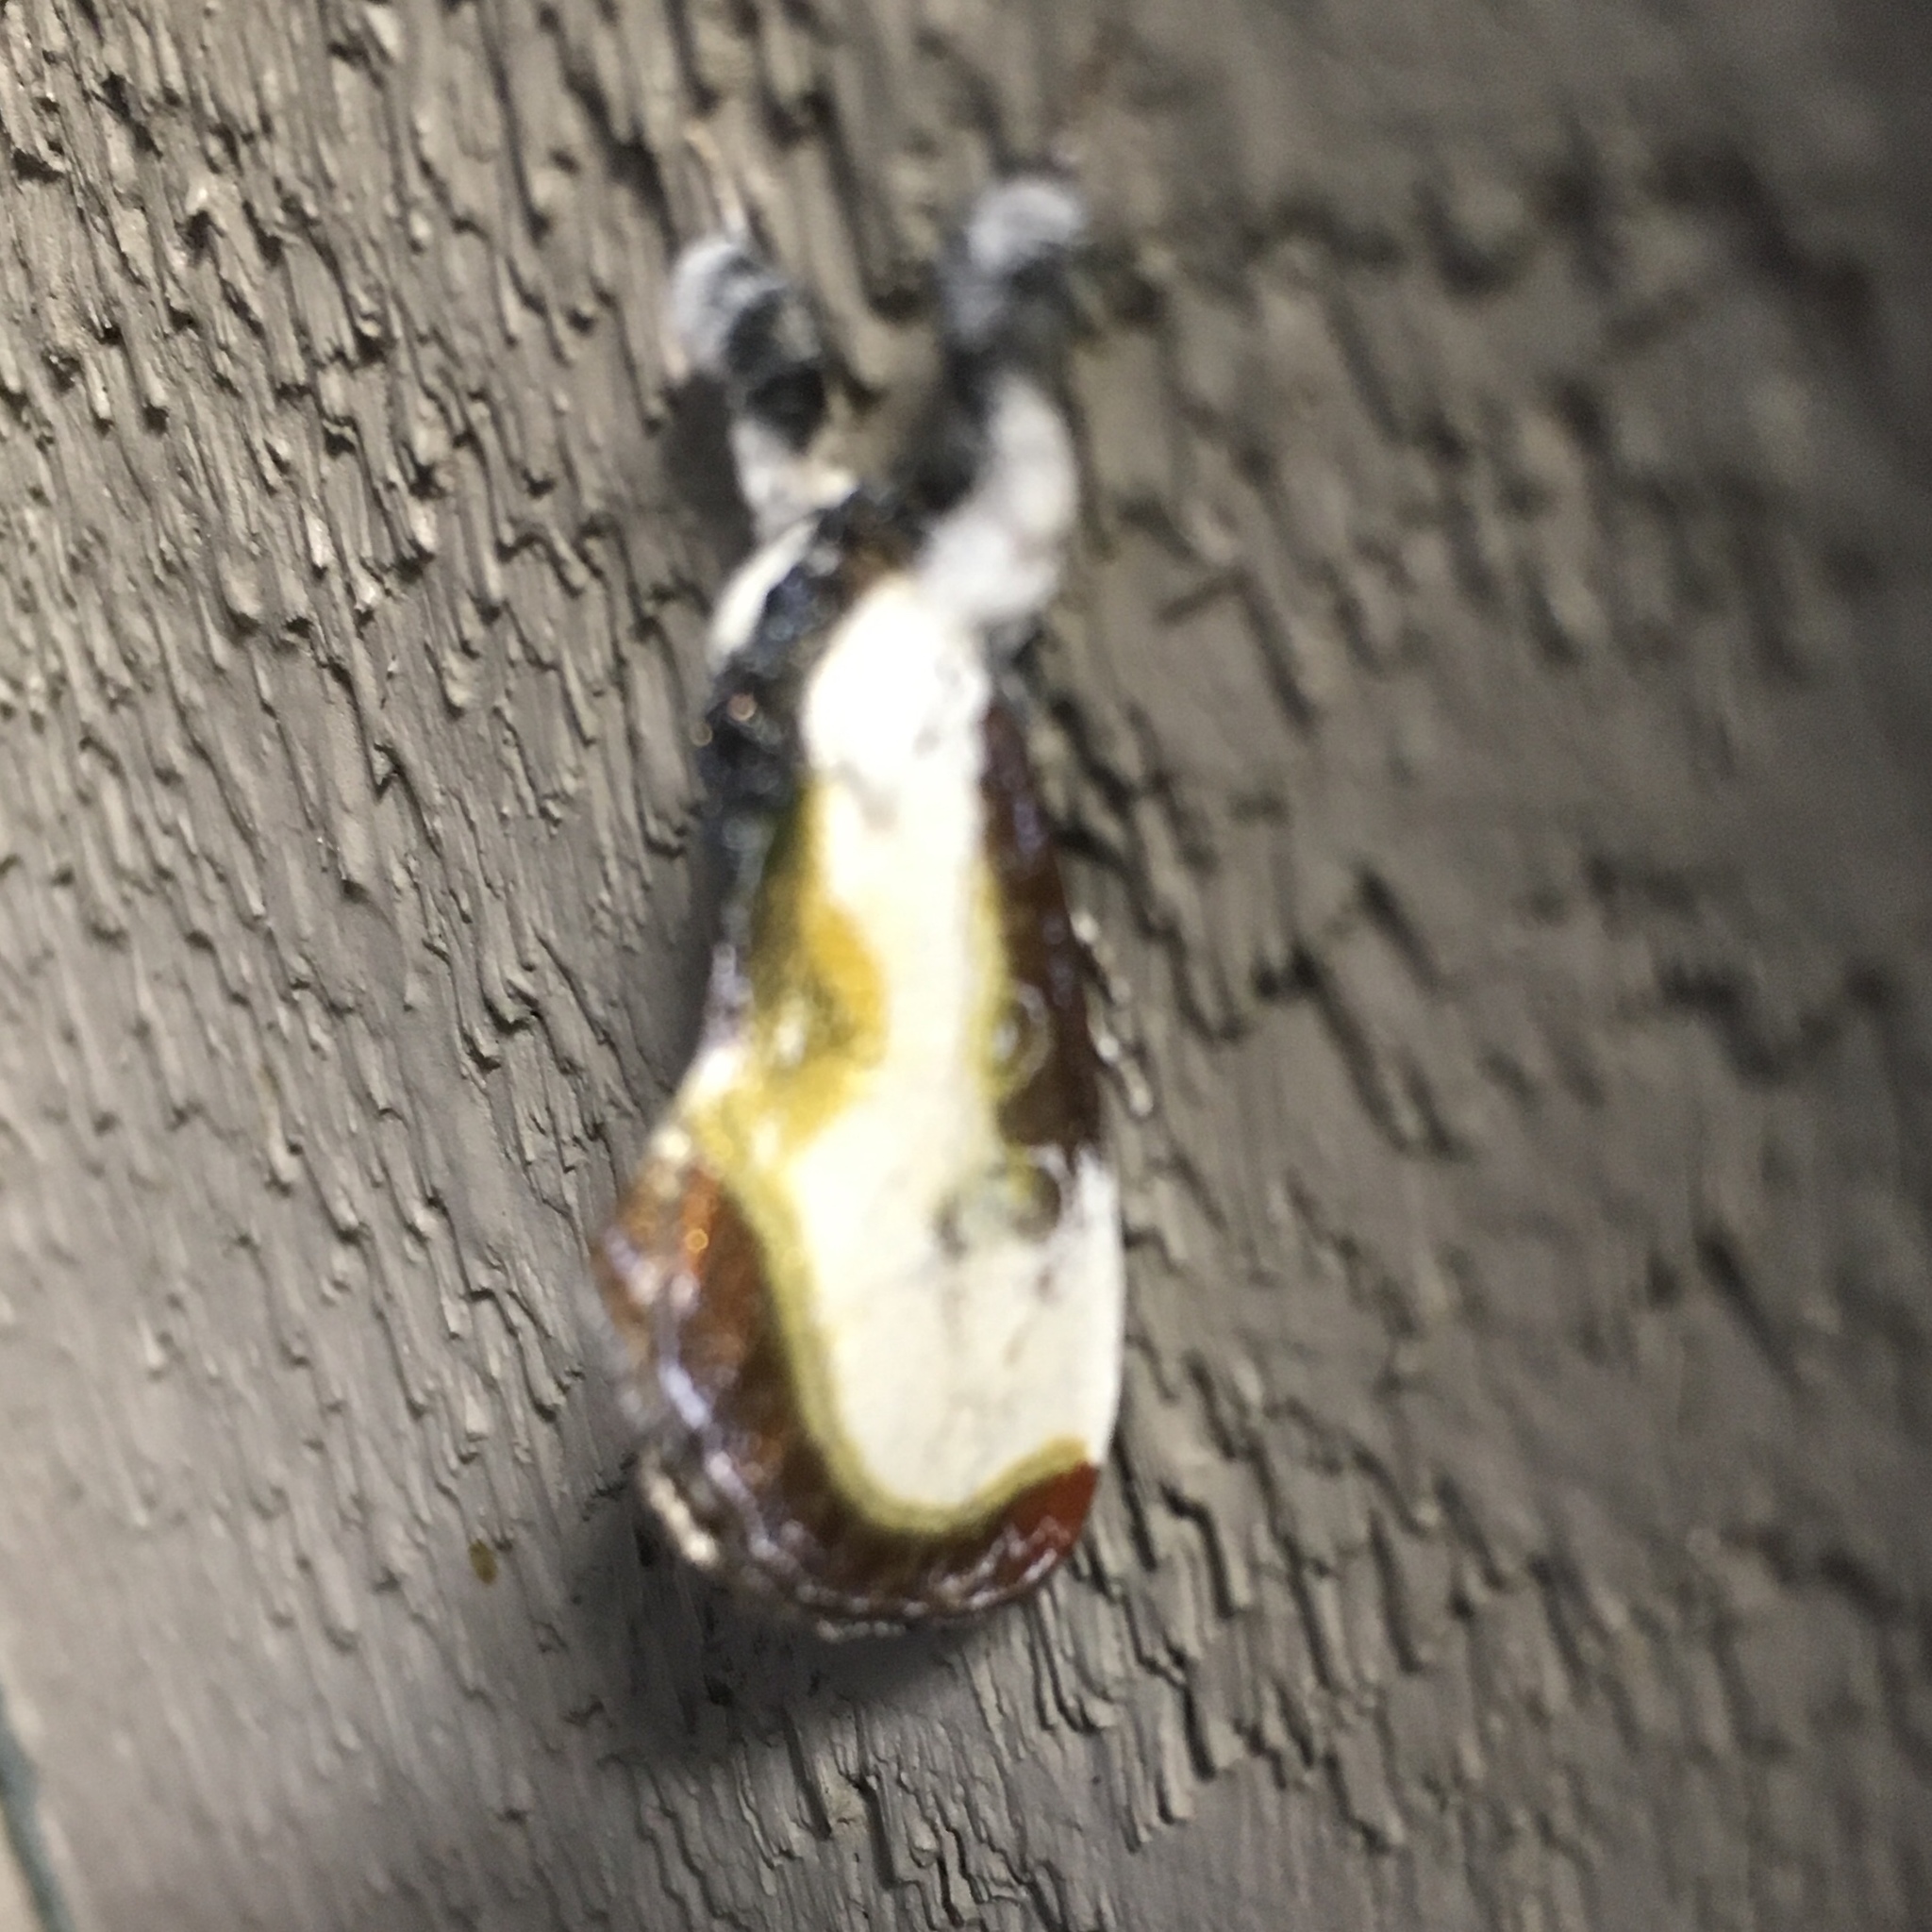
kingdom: Animalia
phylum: Arthropoda
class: Insecta
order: Lepidoptera
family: Noctuidae
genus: Eudryas
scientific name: Eudryas grata
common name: Beautiful wood-nymph
